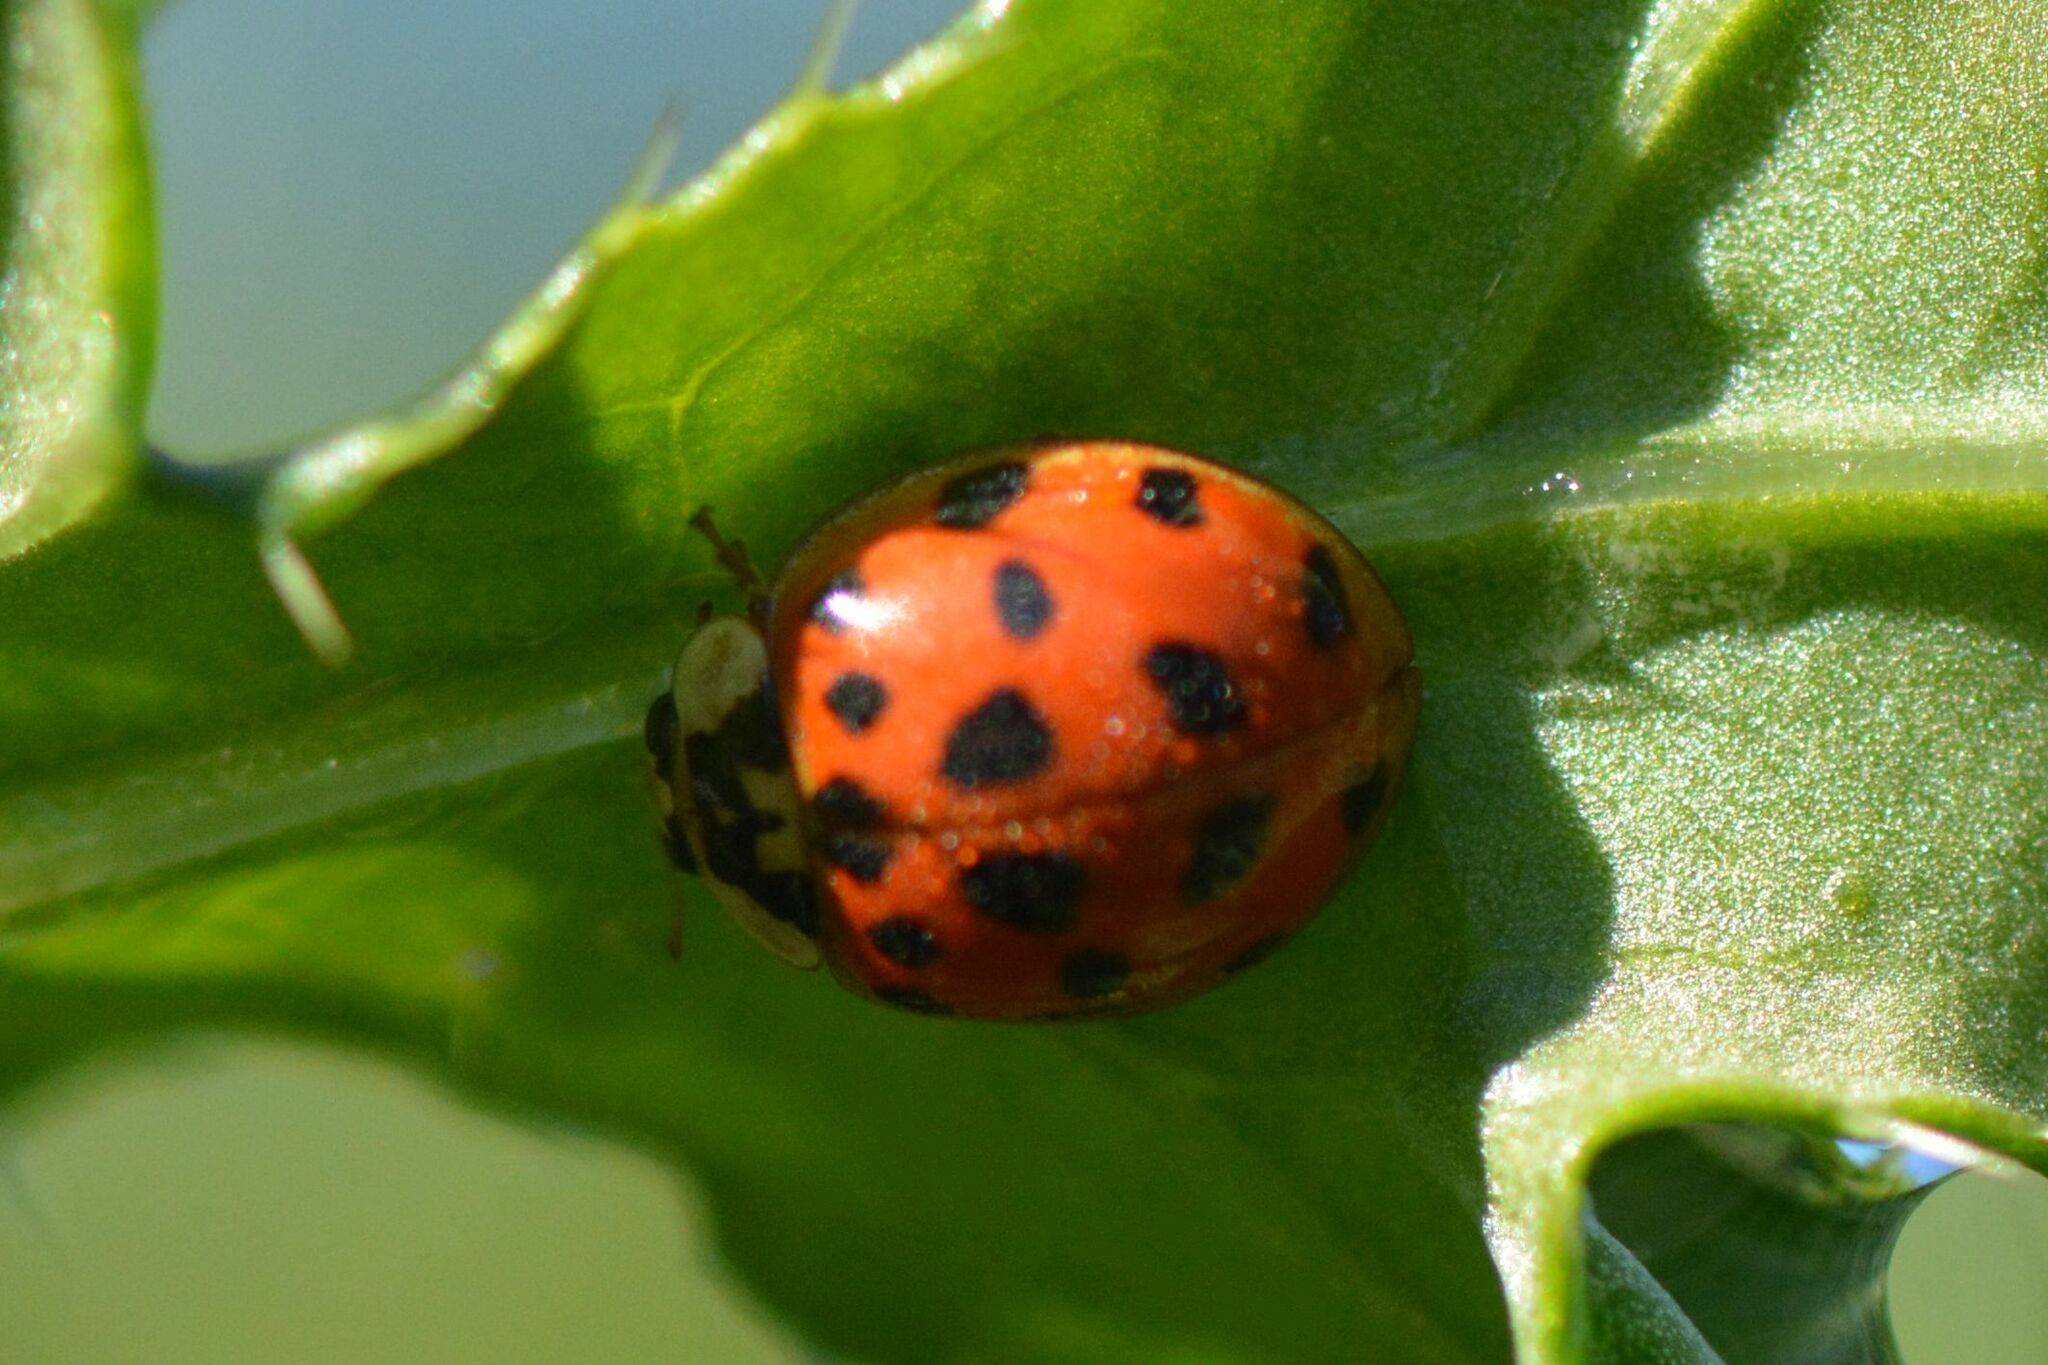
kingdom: Animalia
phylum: Arthropoda
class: Insecta
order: Coleoptera
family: Coccinellidae
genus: Harmonia
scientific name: Harmonia axyridis
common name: Harlequin ladybird
